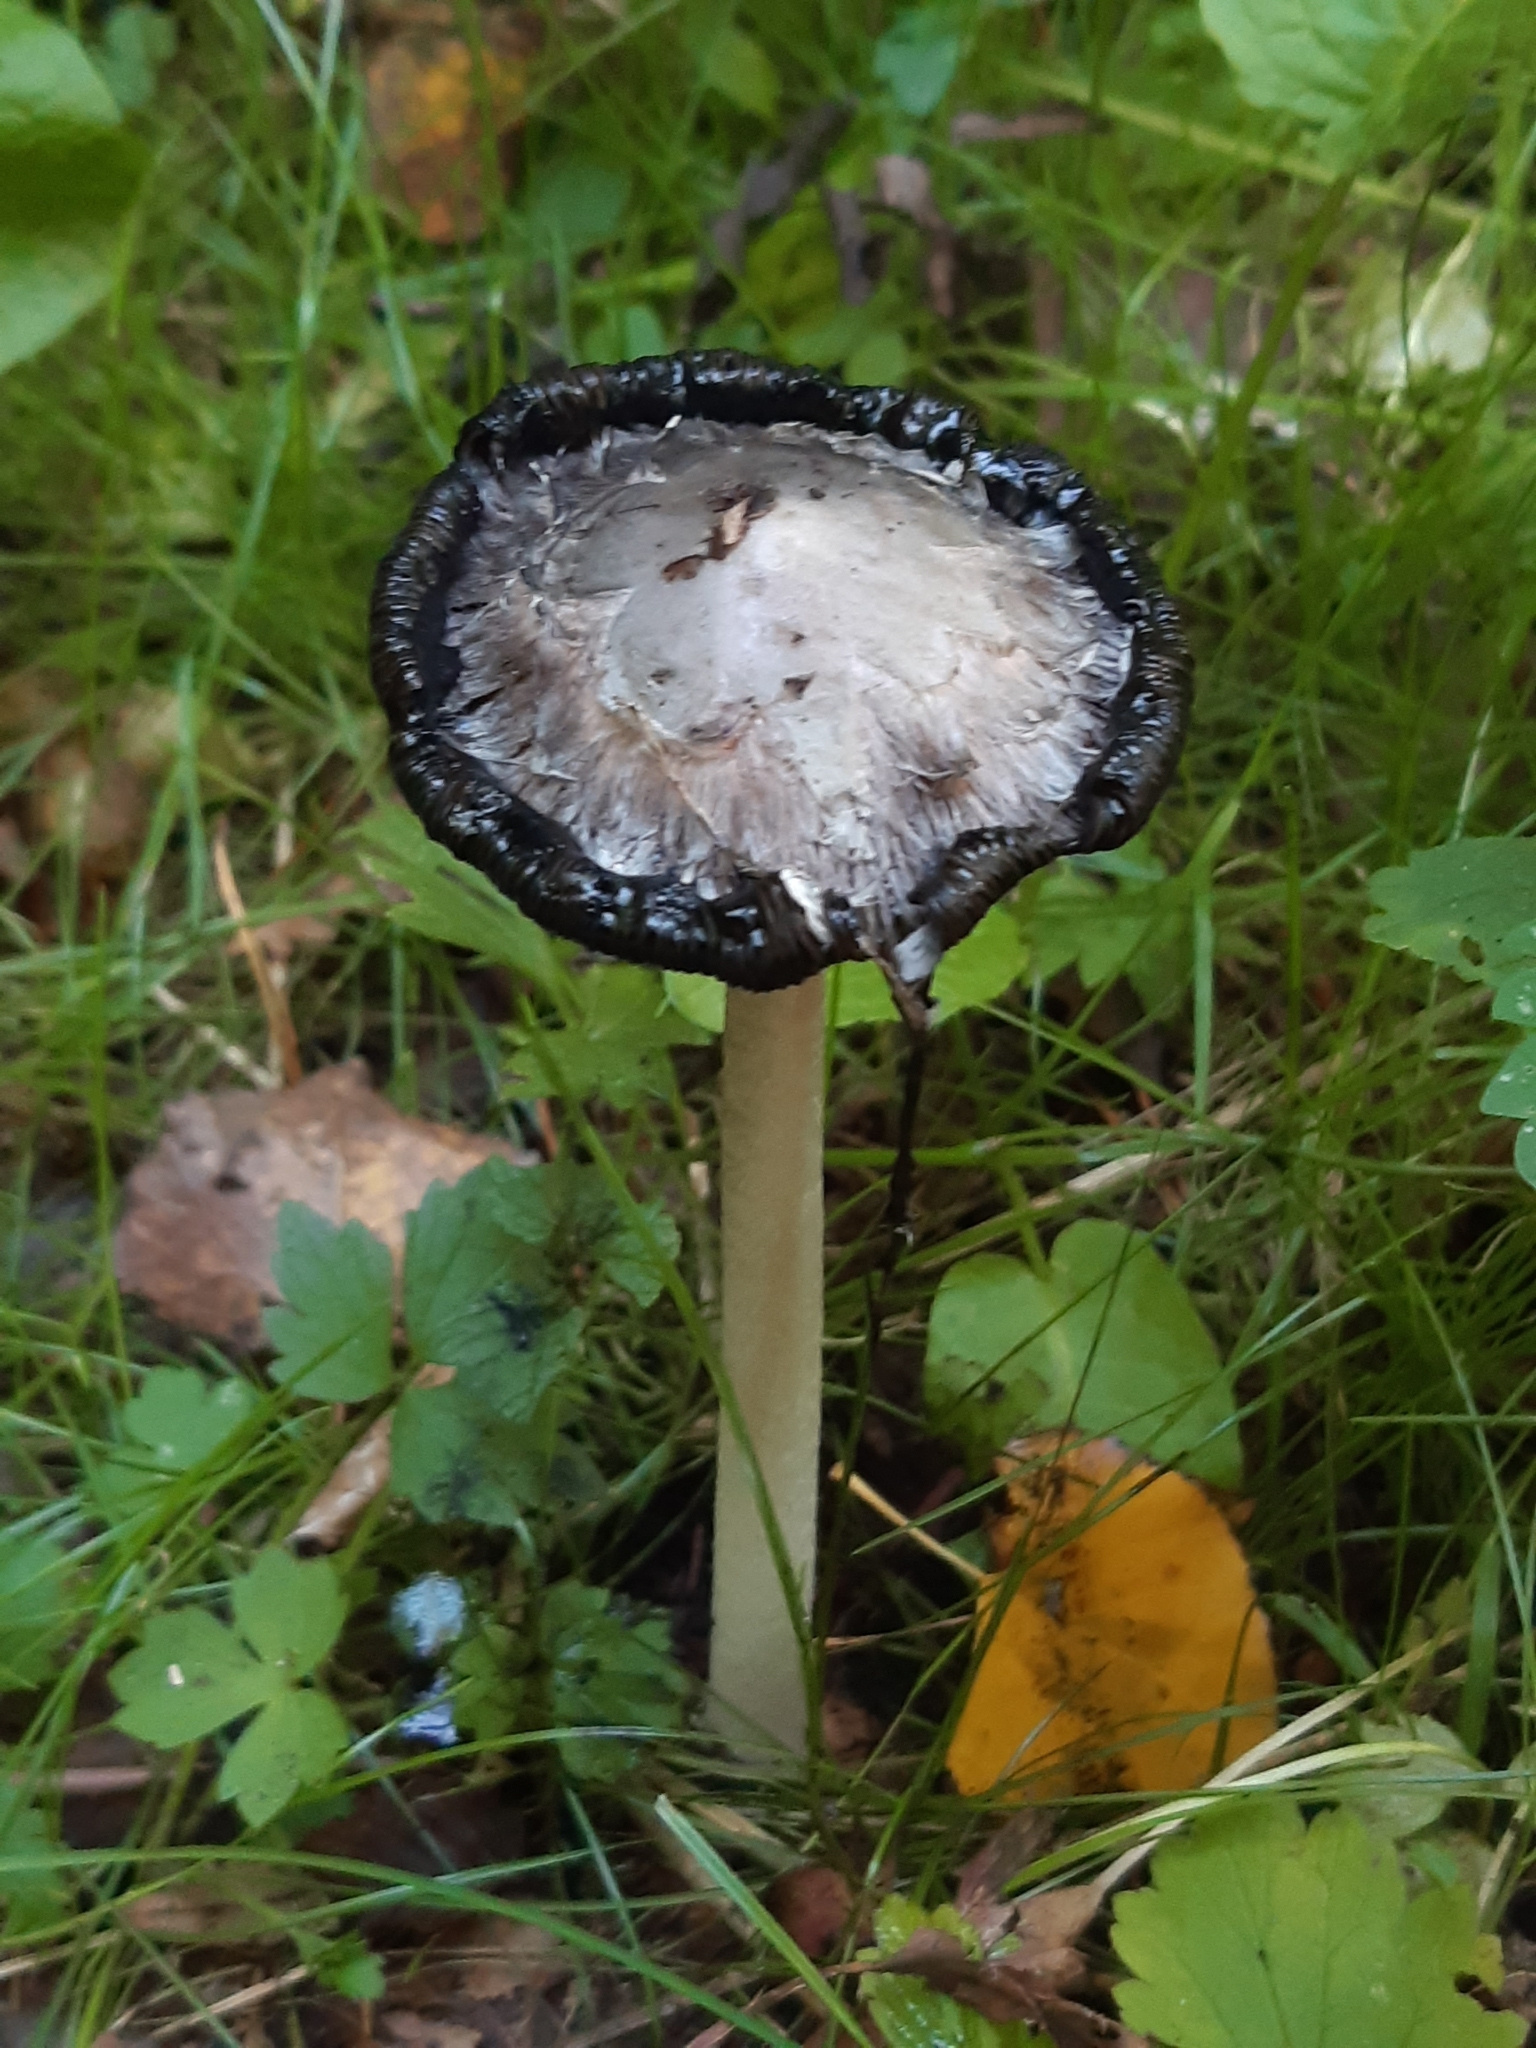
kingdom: Fungi
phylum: Basidiomycota
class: Agaricomycetes
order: Agaricales
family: Agaricaceae
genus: Coprinus
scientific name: Coprinus comatus
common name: Lawyer's wig
